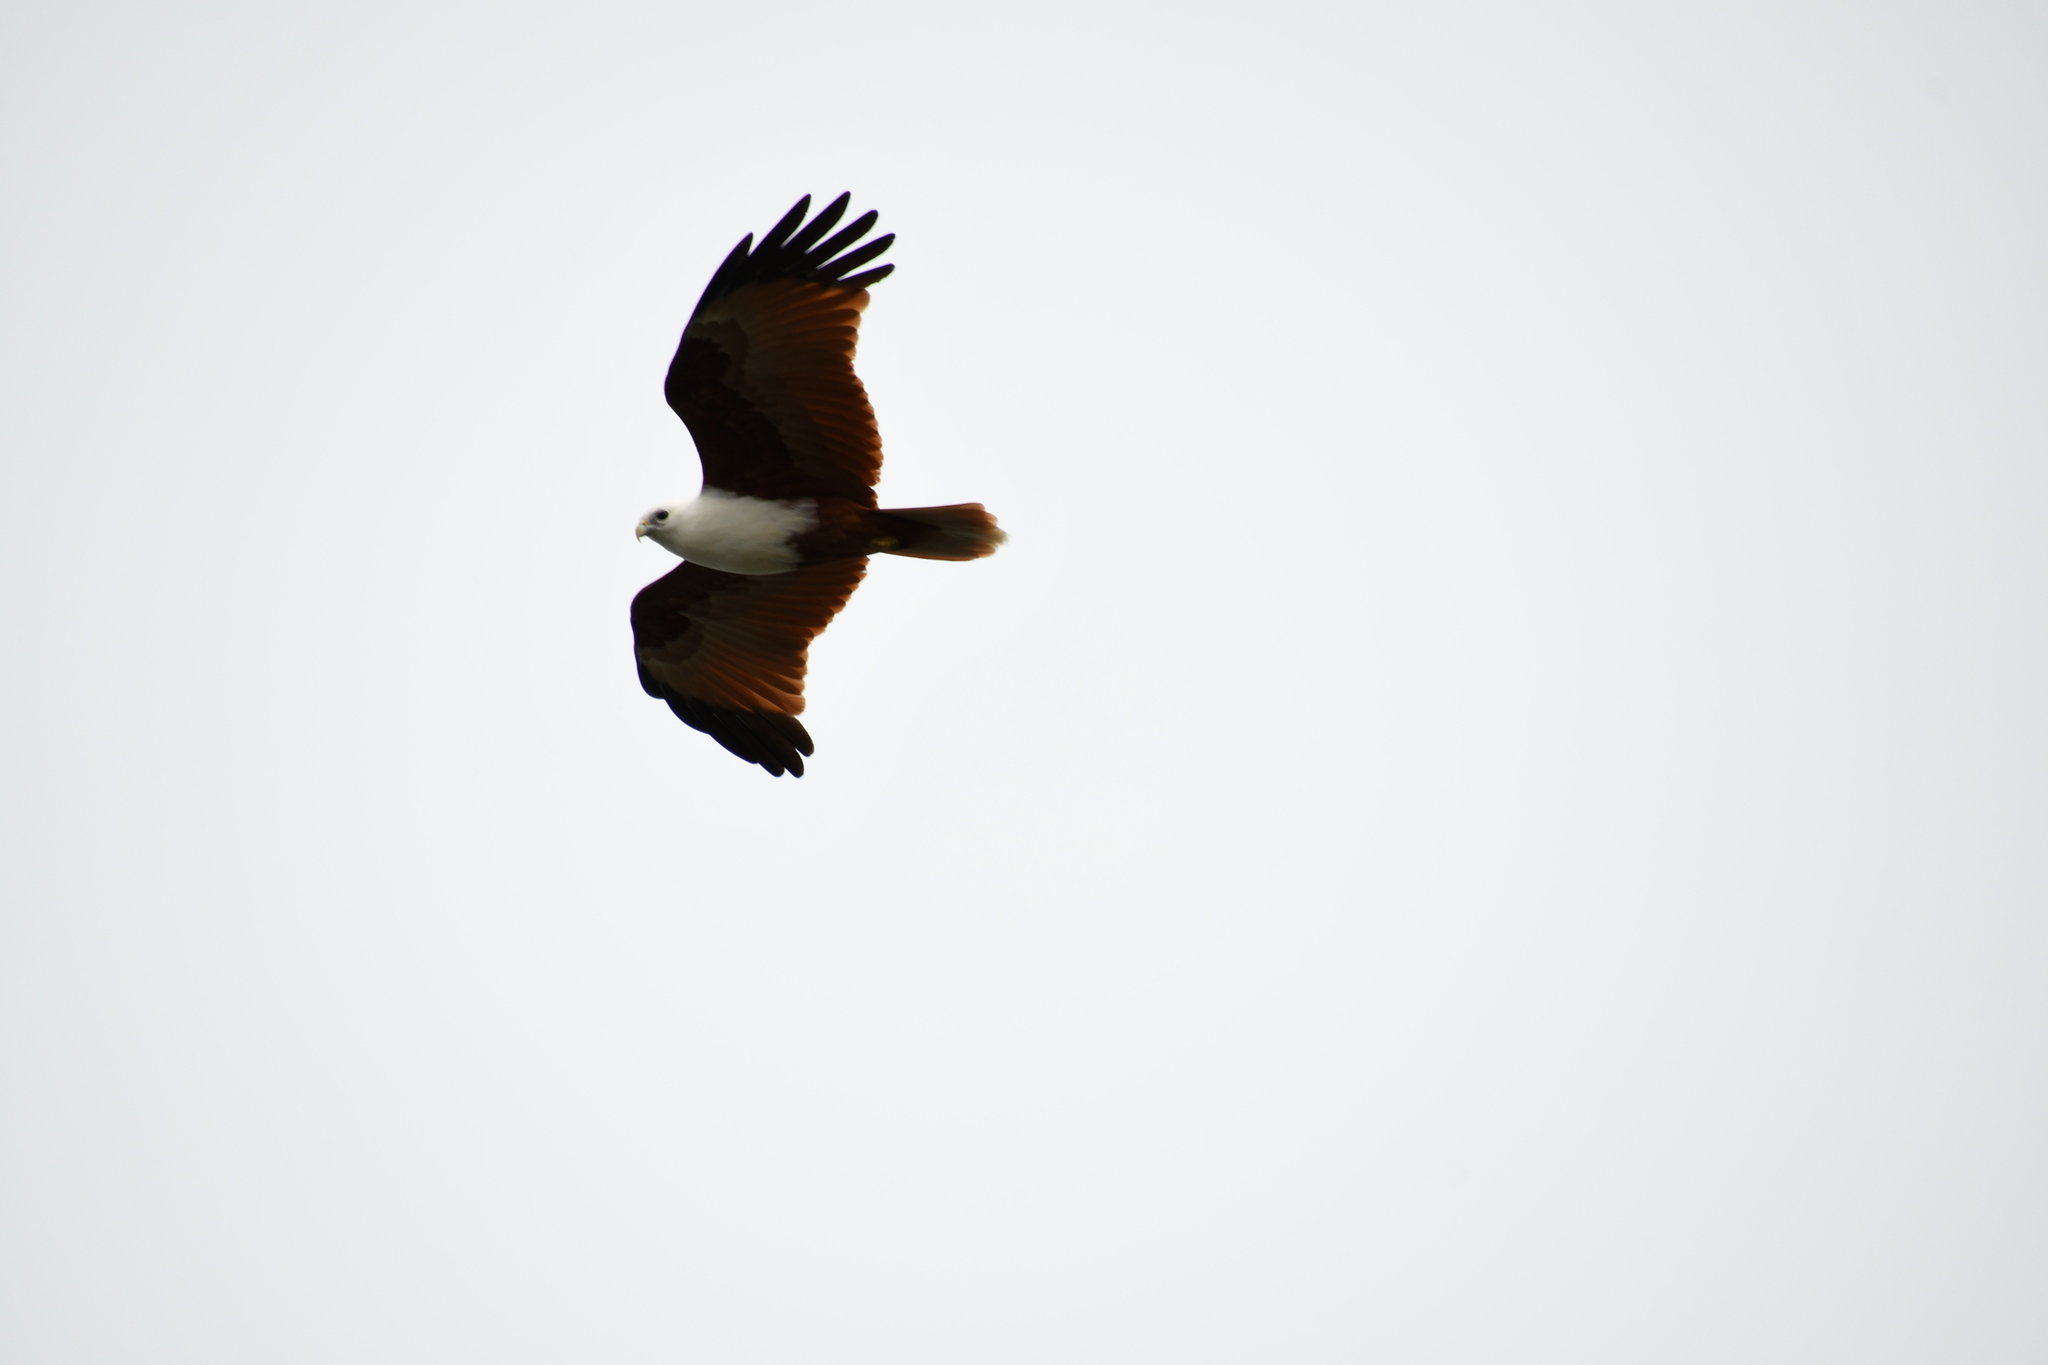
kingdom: Animalia
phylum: Chordata
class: Aves
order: Accipitriformes
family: Accipitridae
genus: Haliastur
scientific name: Haliastur indus
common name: Brahminy kite
